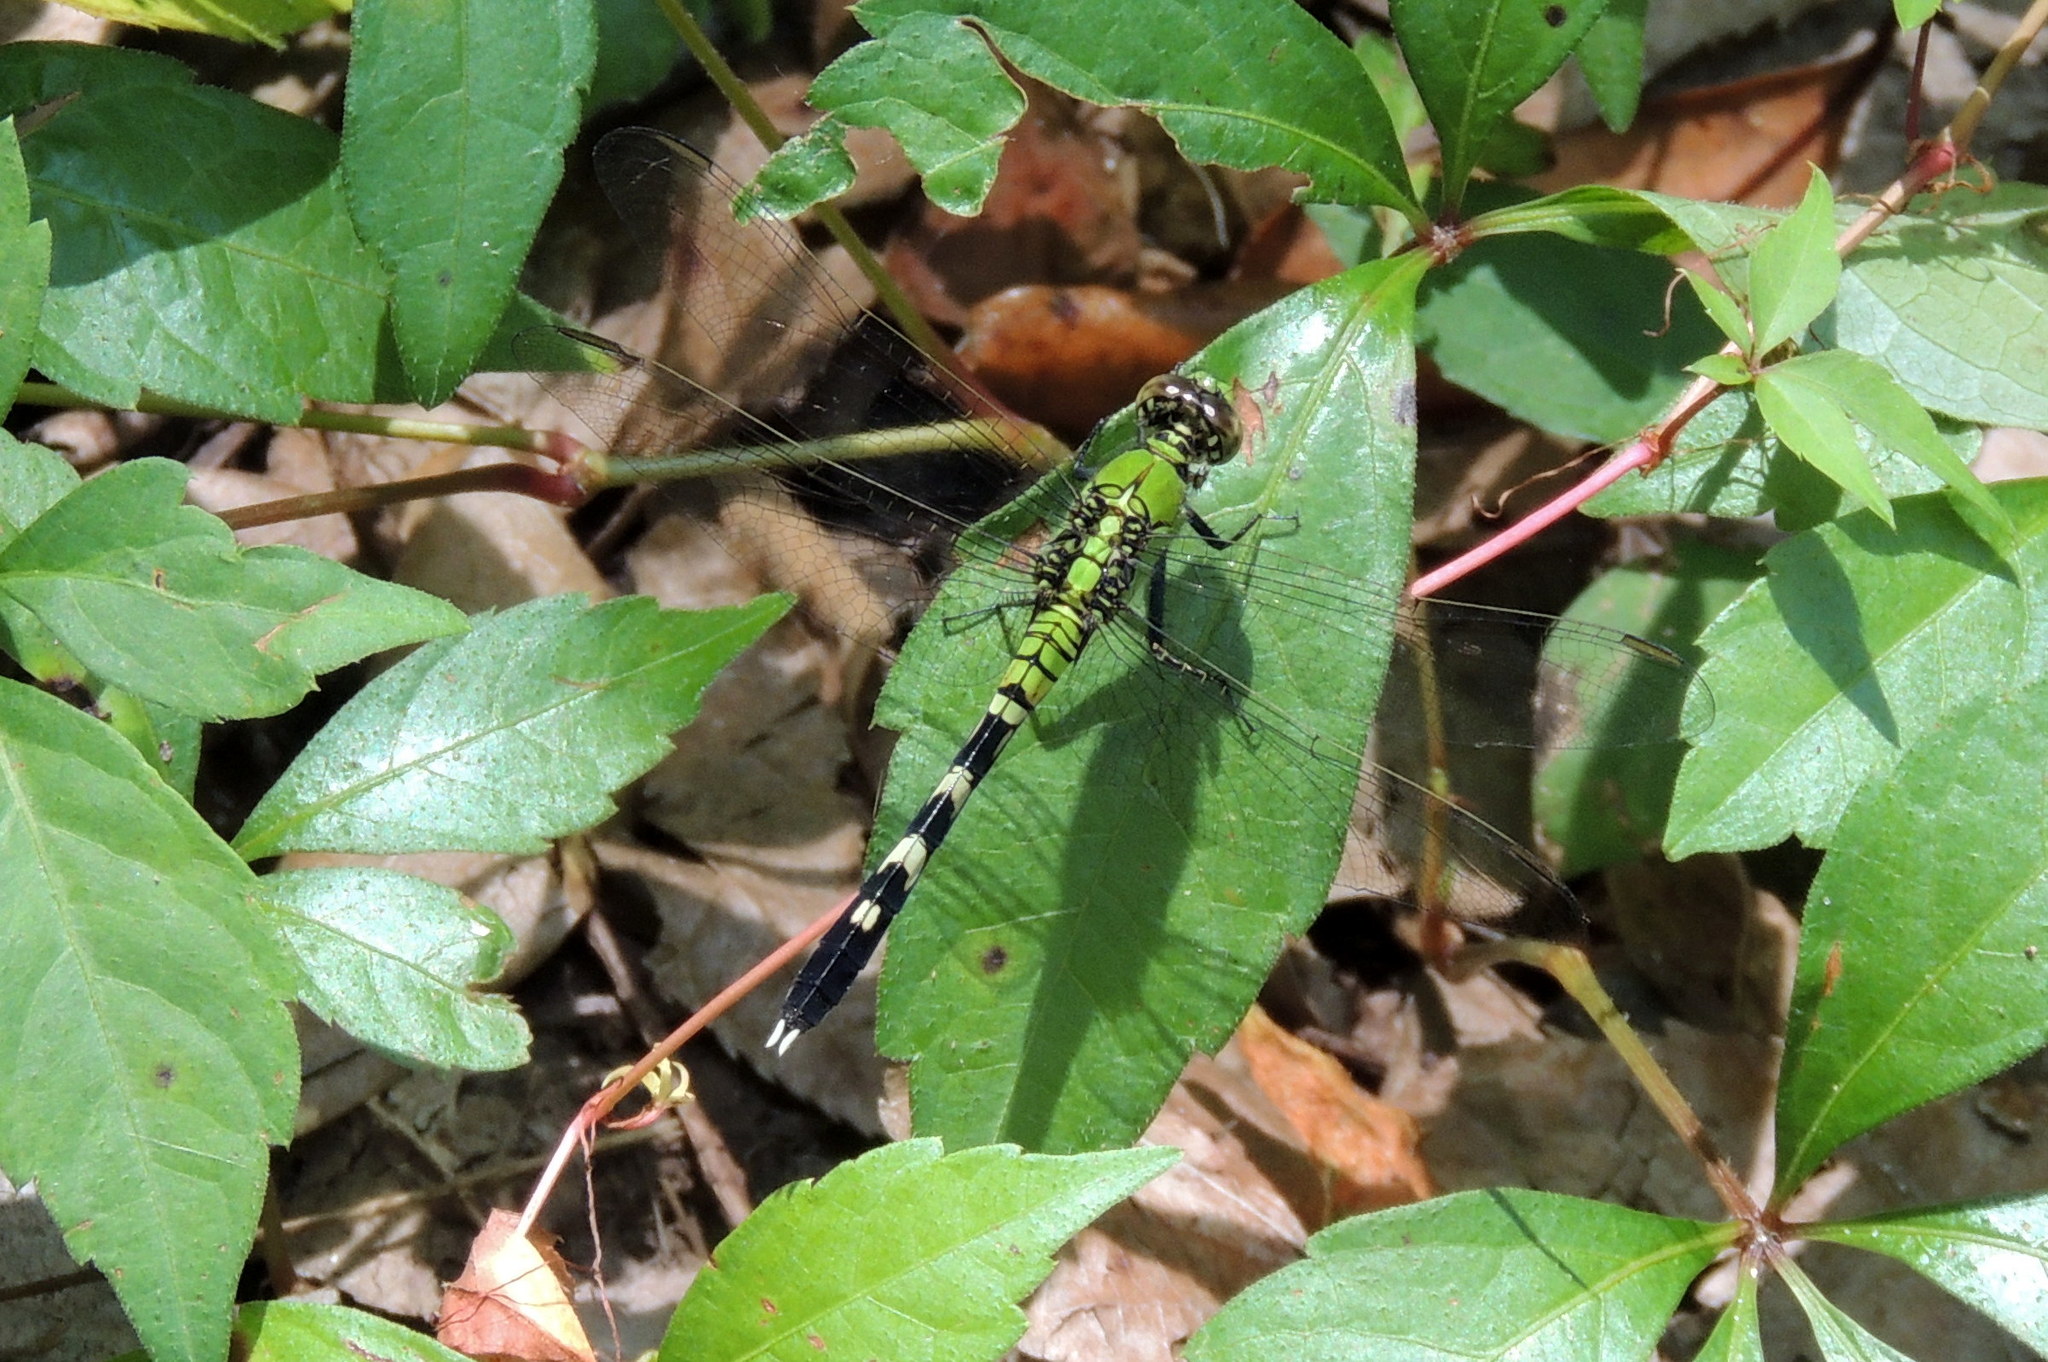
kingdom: Animalia
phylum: Arthropoda
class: Insecta
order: Odonata
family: Libellulidae
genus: Erythemis
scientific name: Erythemis simplicicollis
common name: Eastern pondhawk
